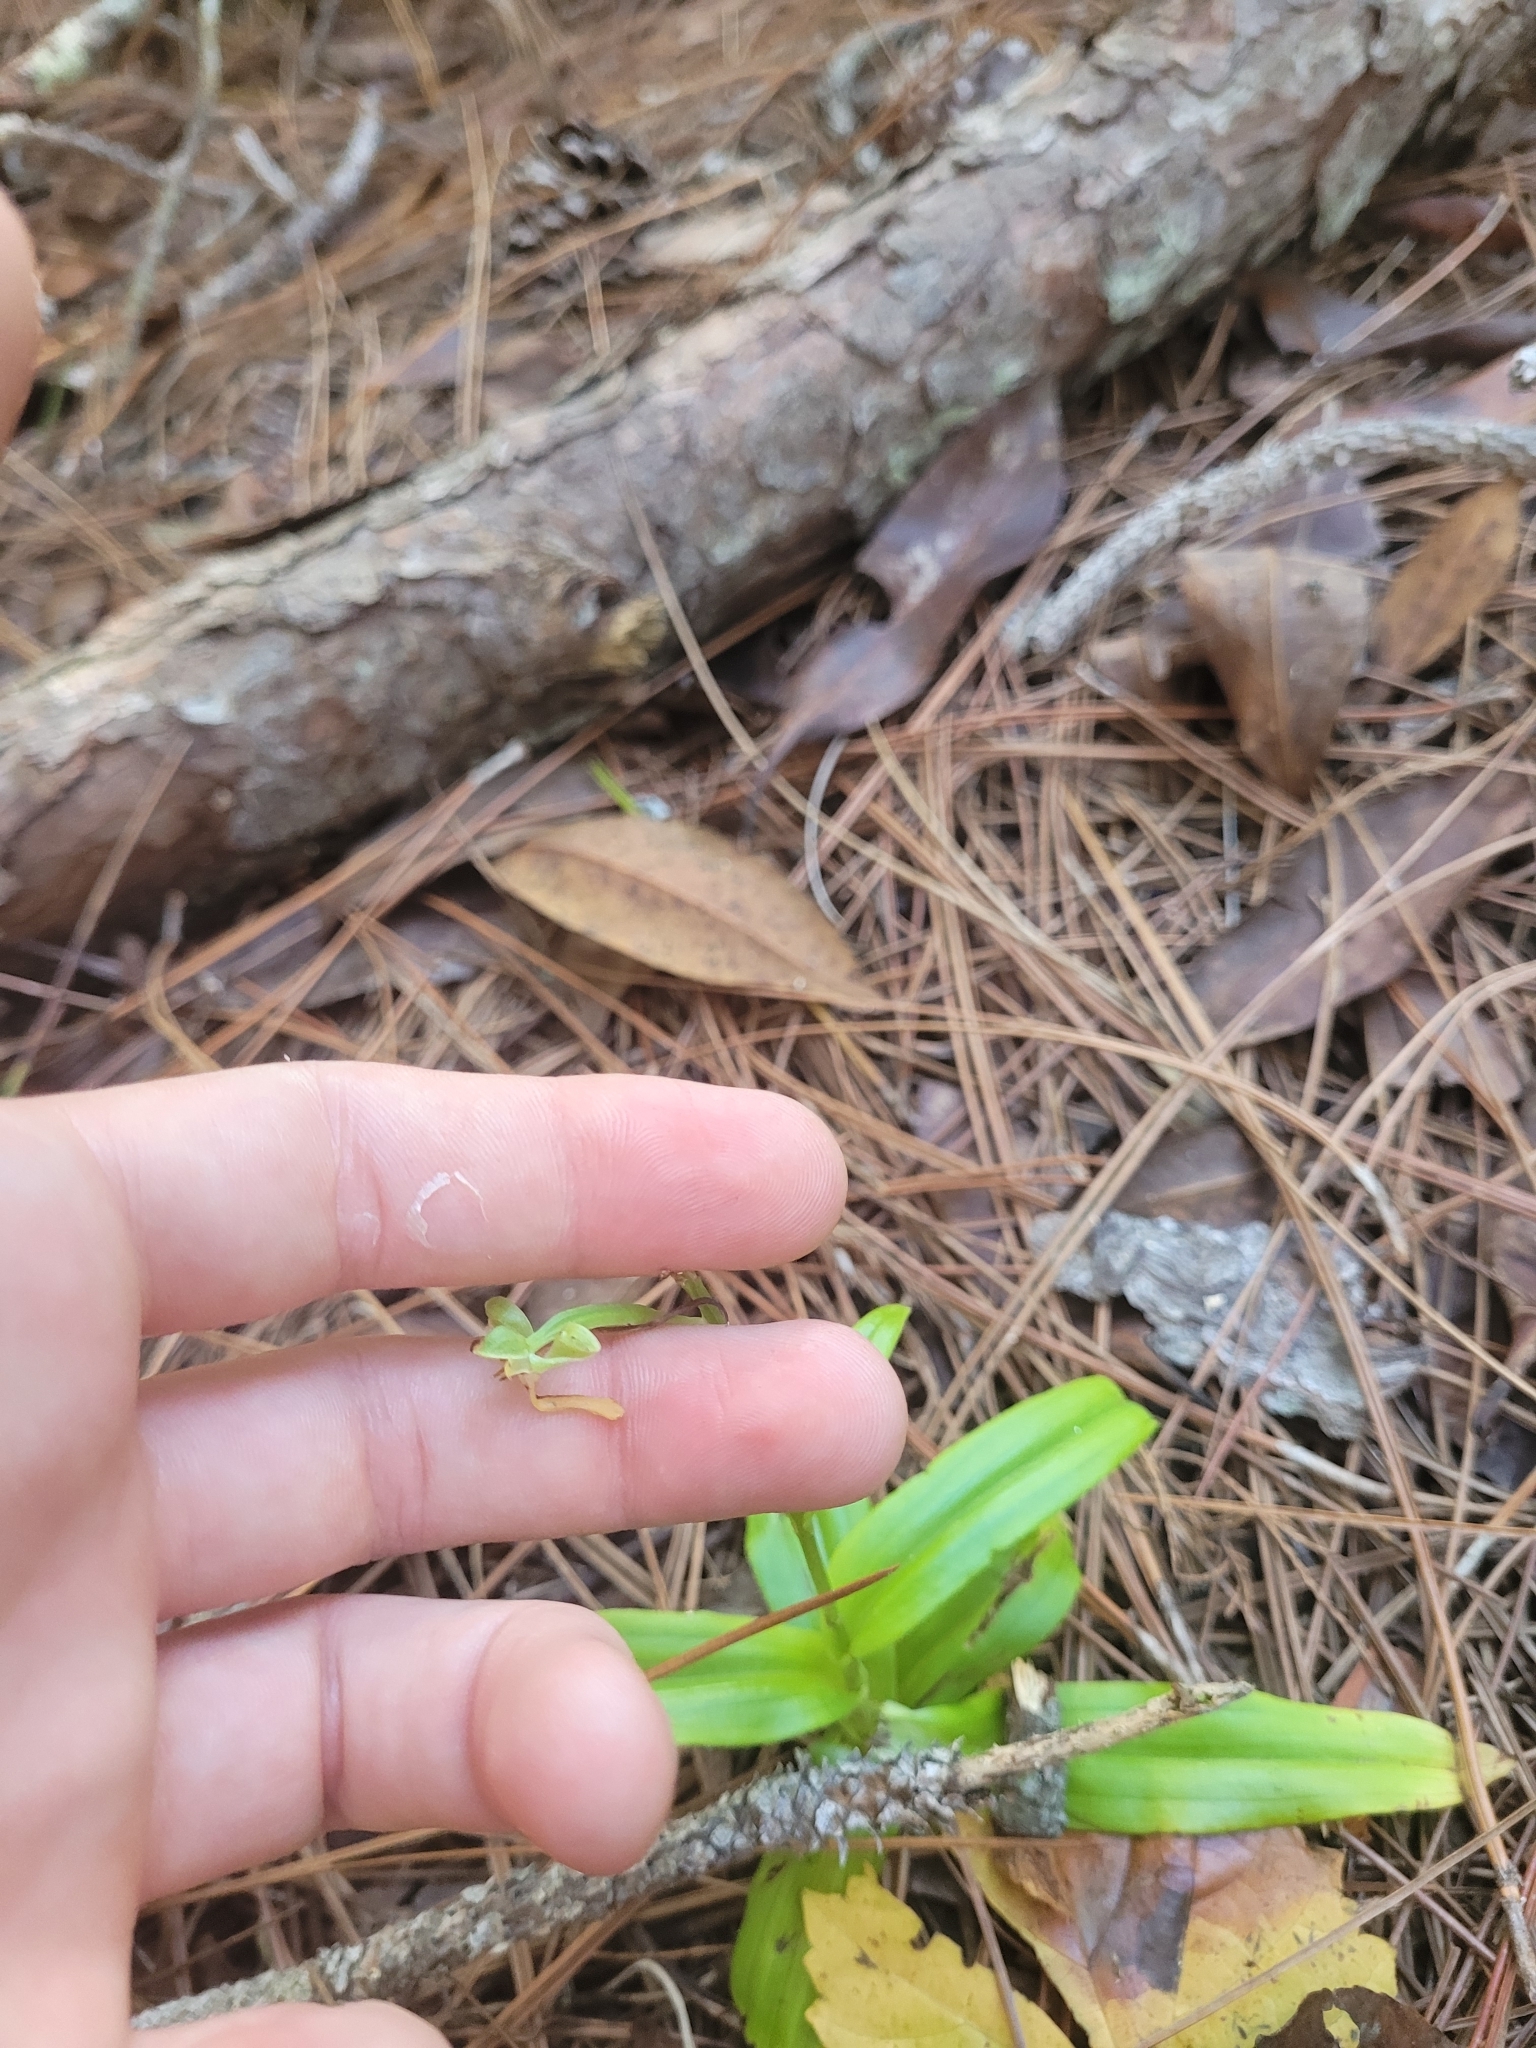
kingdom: Plantae
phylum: Tracheophyta
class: Liliopsida
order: Asparagales
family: Orchidaceae
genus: Habenaria
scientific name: Habenaria floribunda
